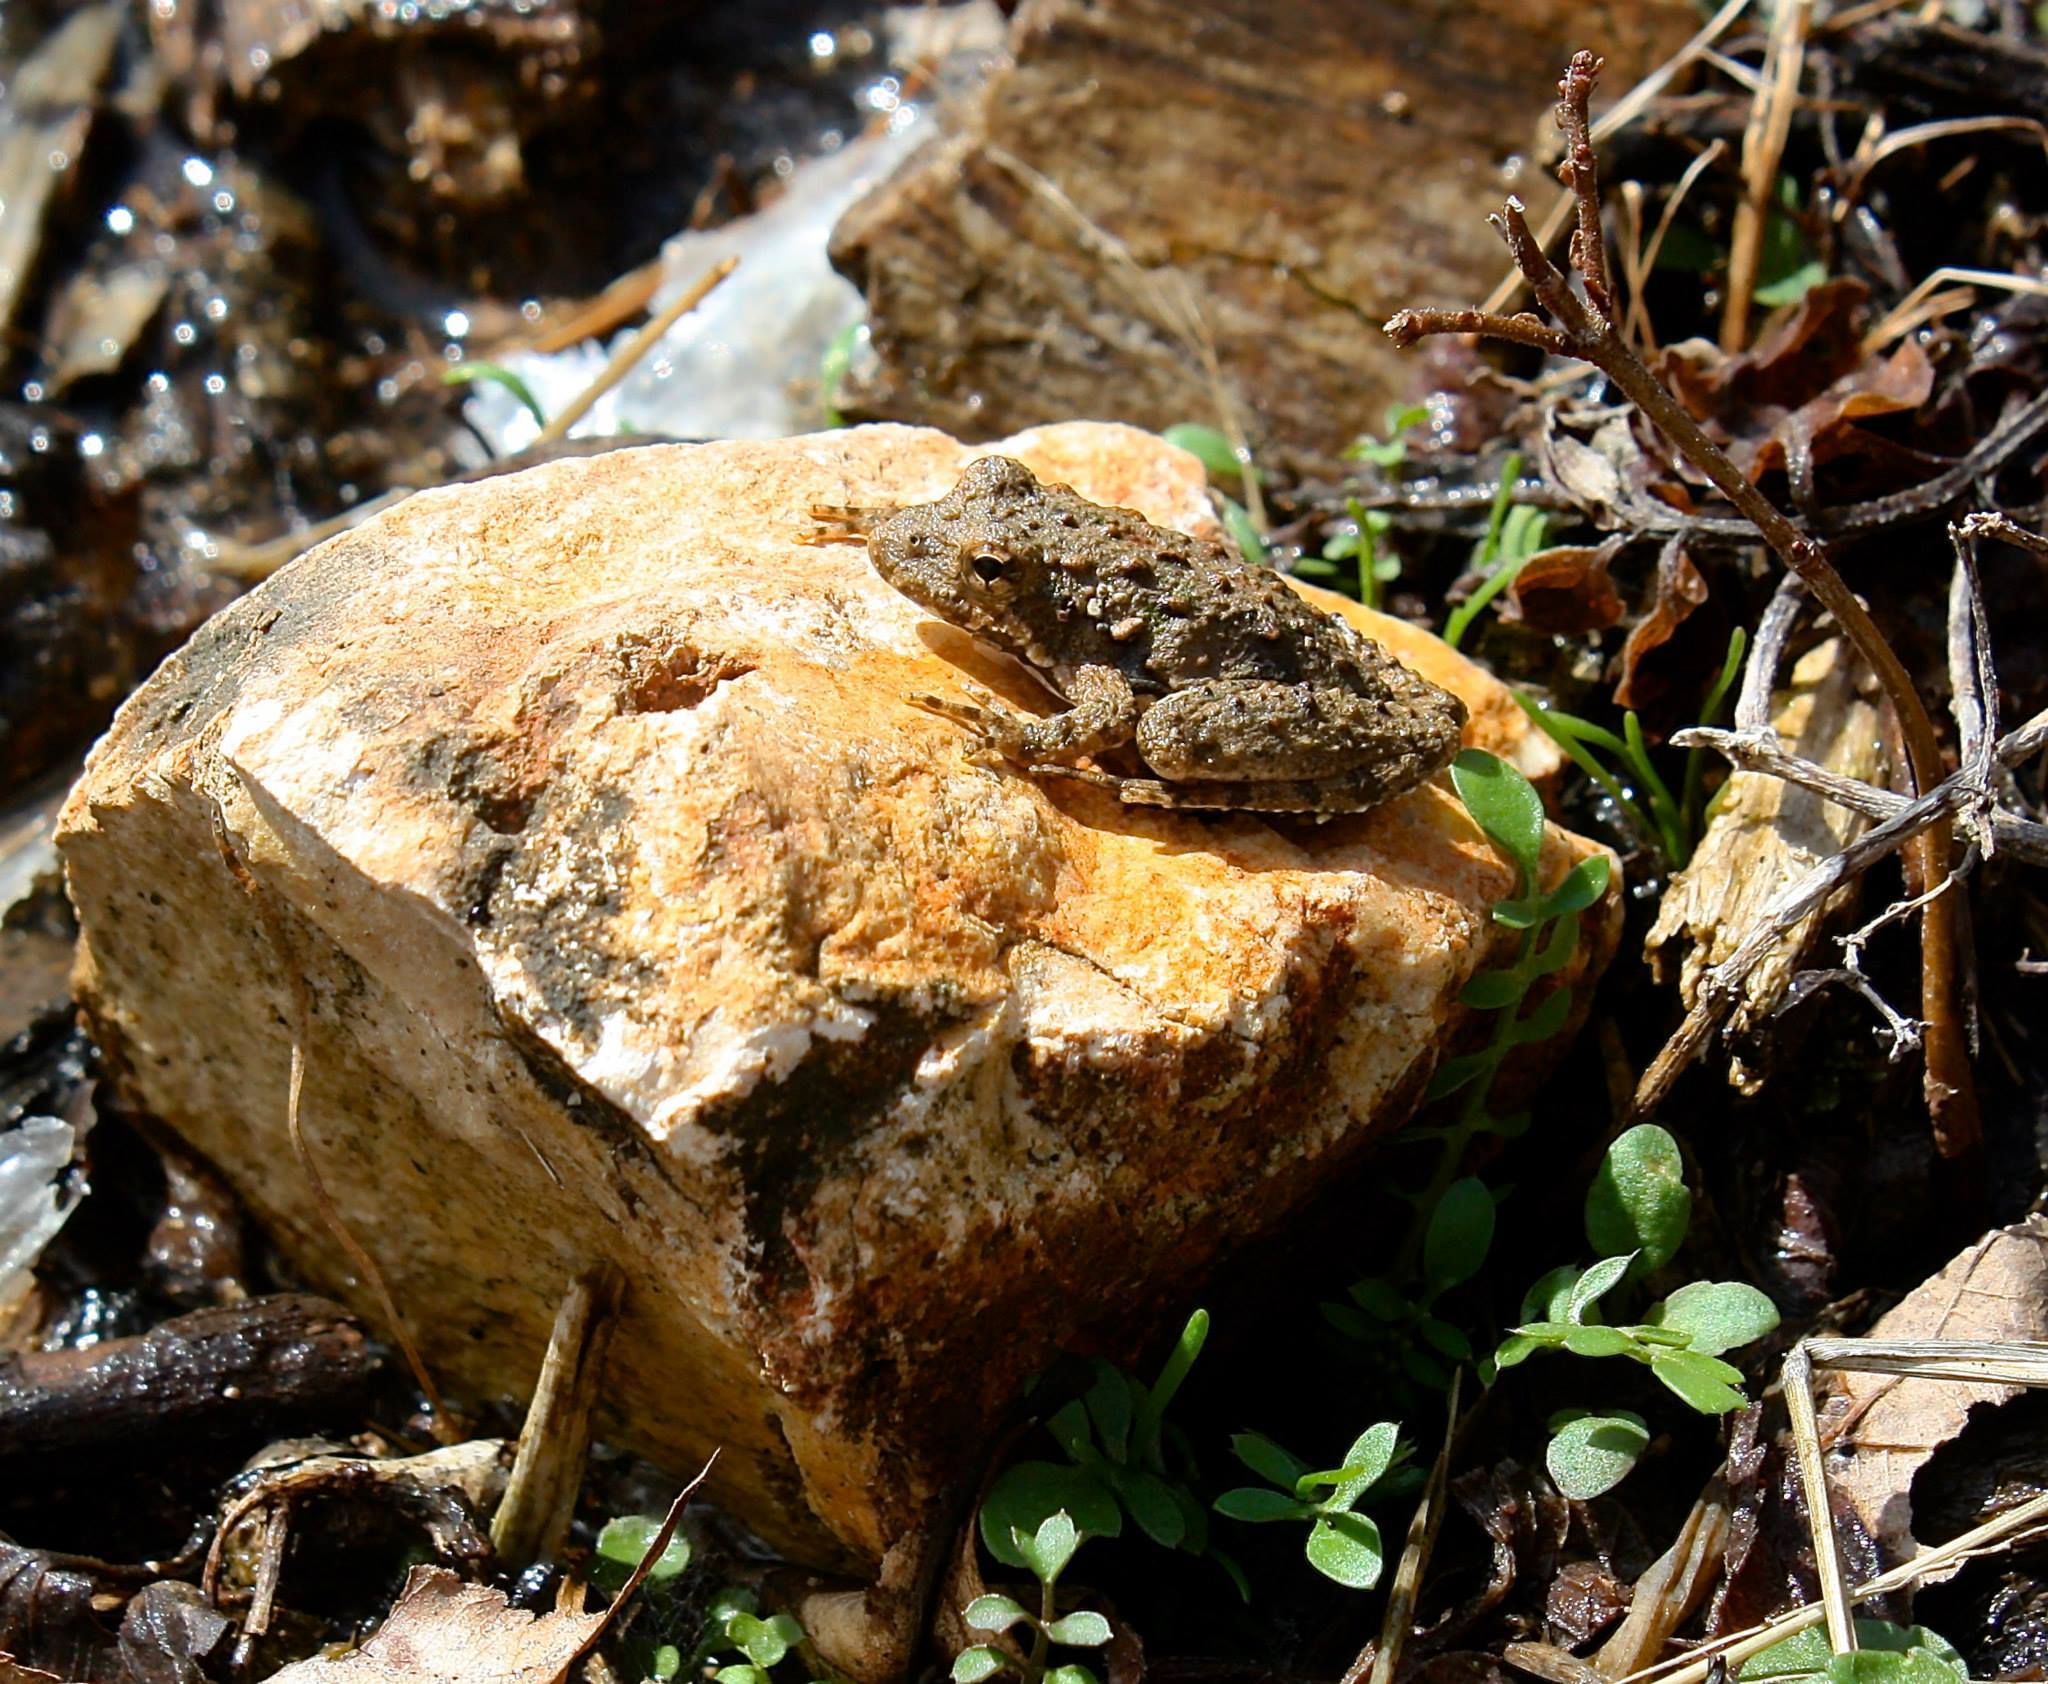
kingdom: Animalia
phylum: Chordata
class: Amphibia
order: Anura
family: Hylidae
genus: Acris
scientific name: Acris blanchardi
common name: Blanchard's cricket frog
